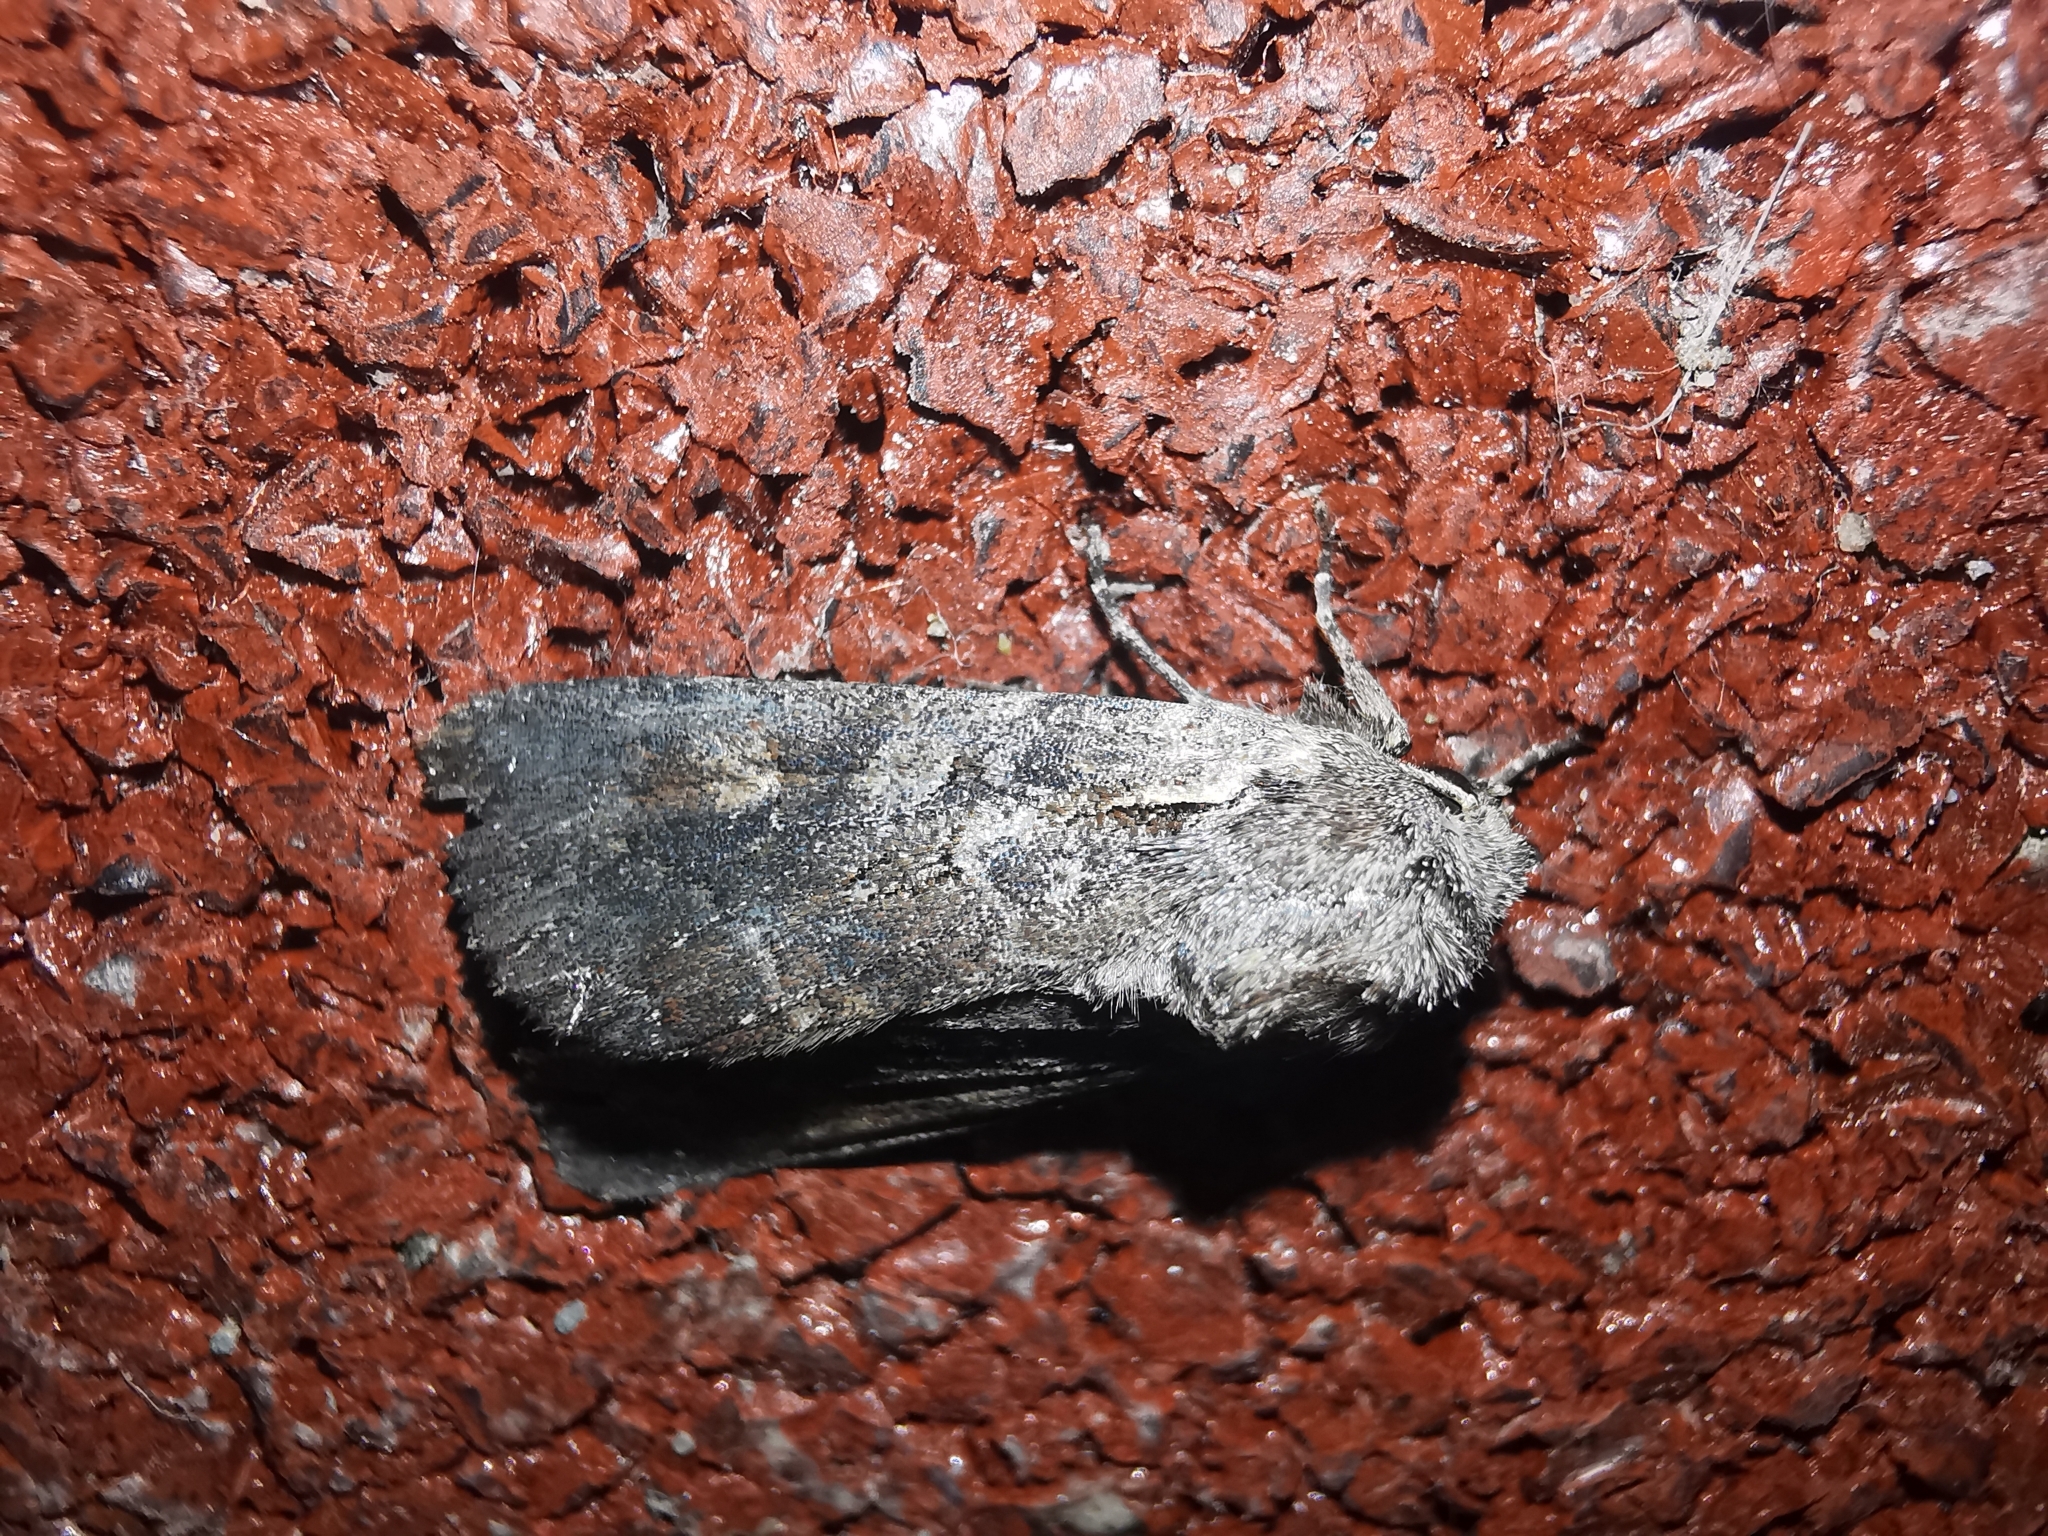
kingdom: Animalia
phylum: Arthropoda
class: Insecta
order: Lepidoptera
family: Noctuidae
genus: Lacanobia
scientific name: Lacanobia suasa
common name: Dog's tooth
